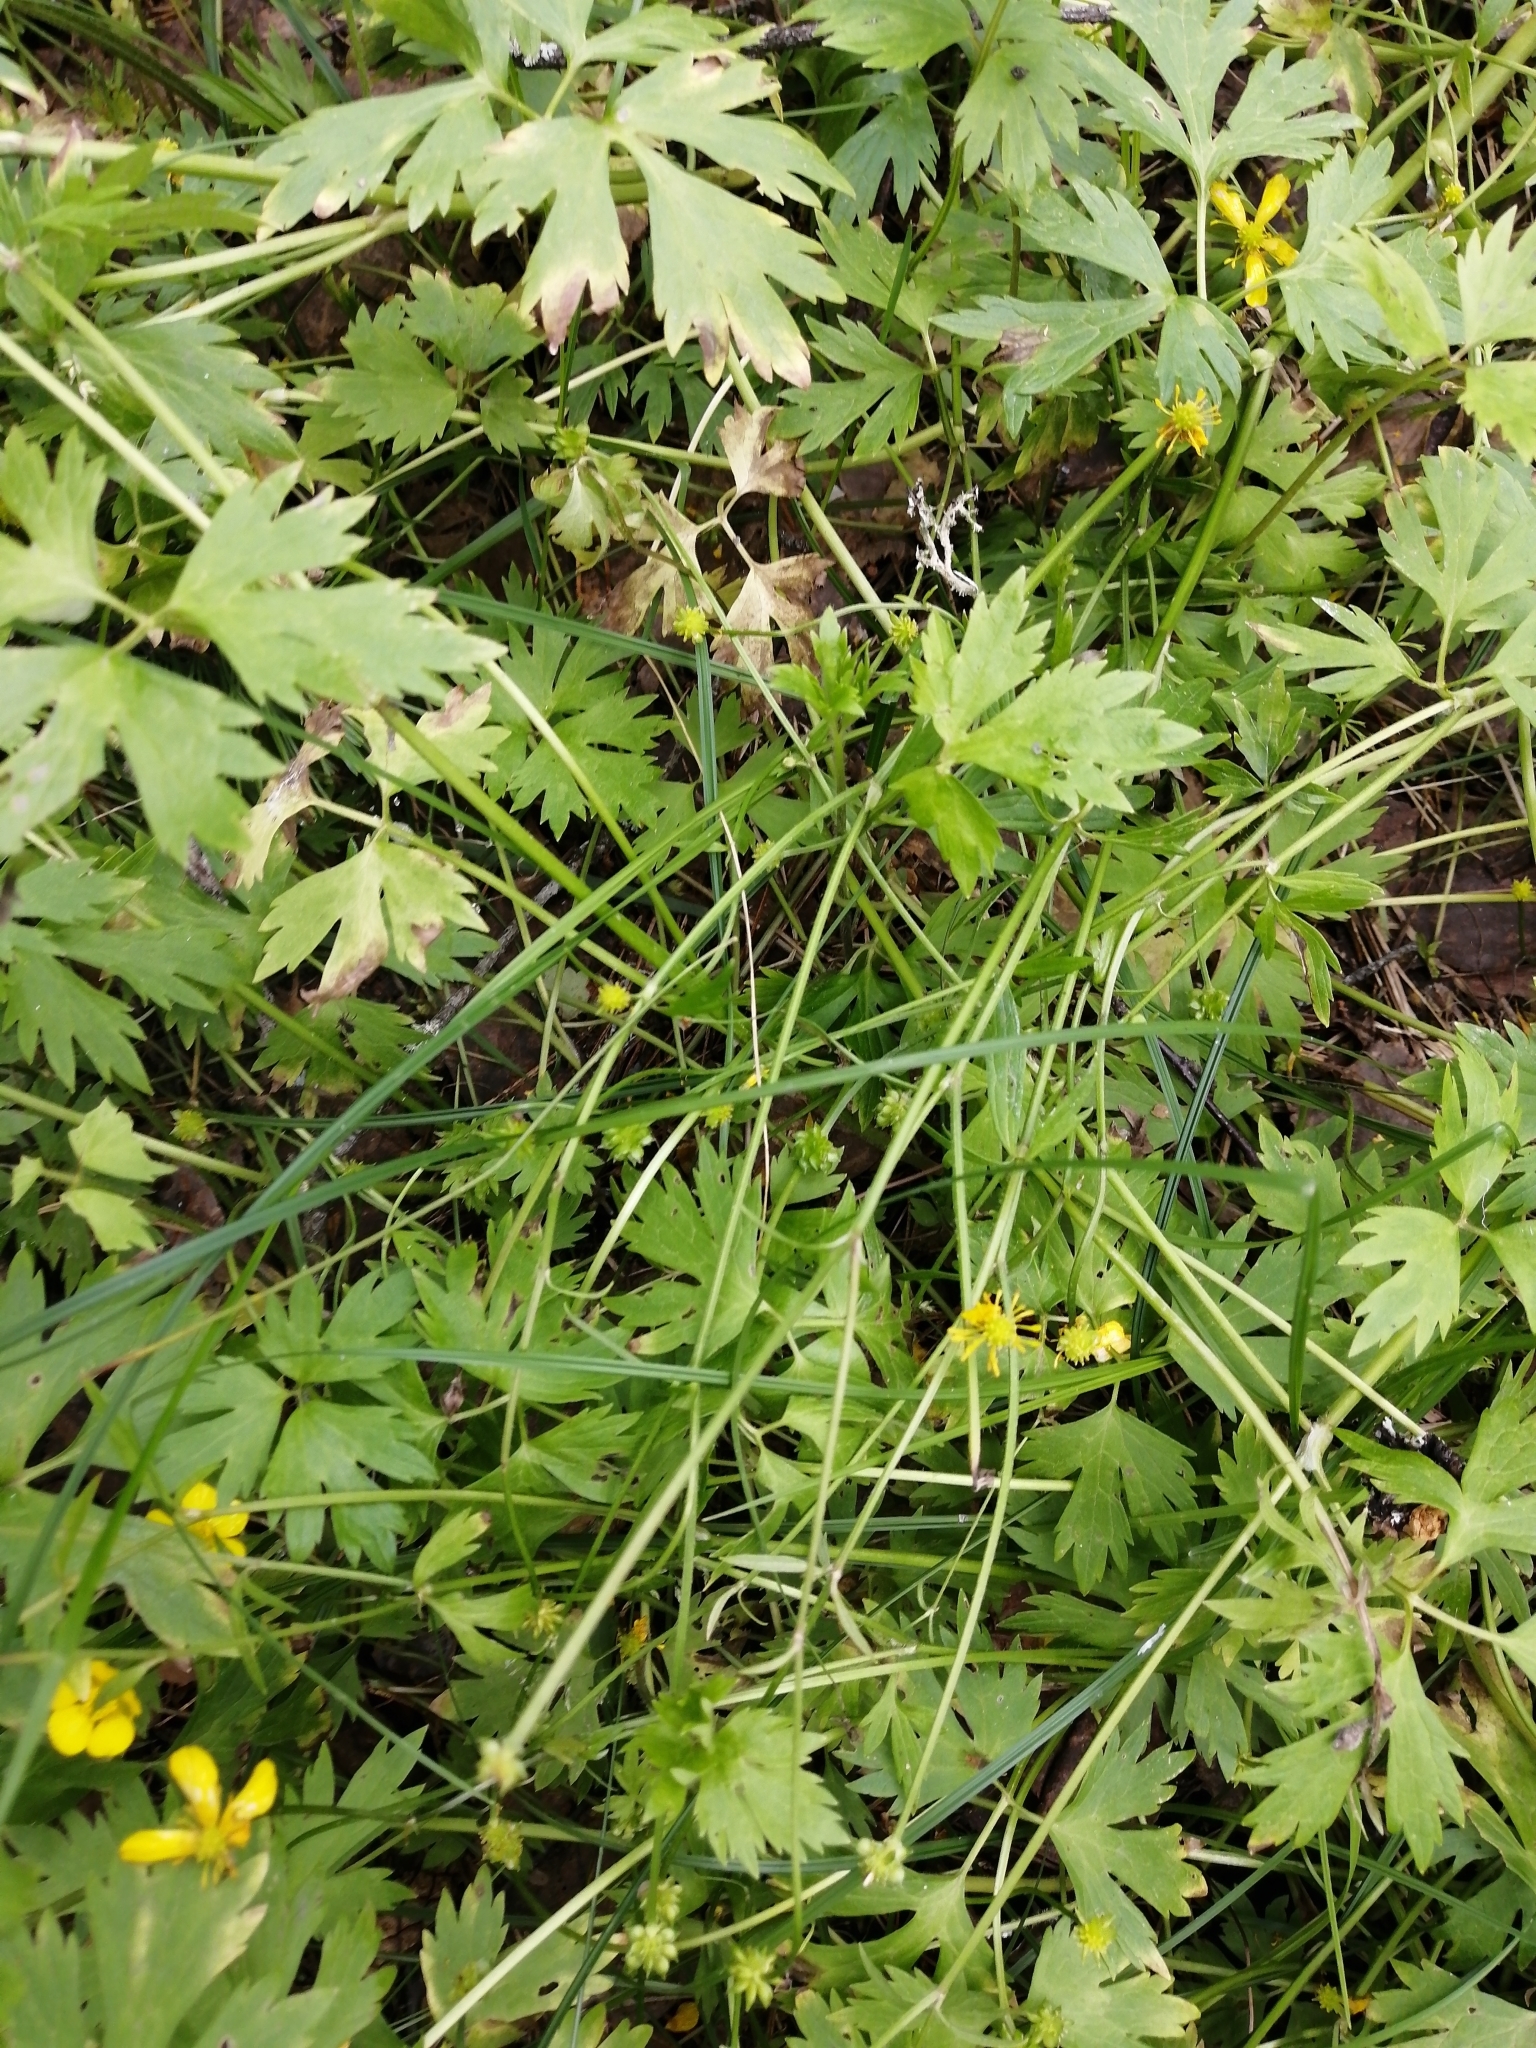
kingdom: Plantae
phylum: Tracheophyta
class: Magnoliopsida
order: Ranunculales
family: Ranunculaceae
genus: Ranunculus
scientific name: Ranunculus repens
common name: Creeping buttercup
